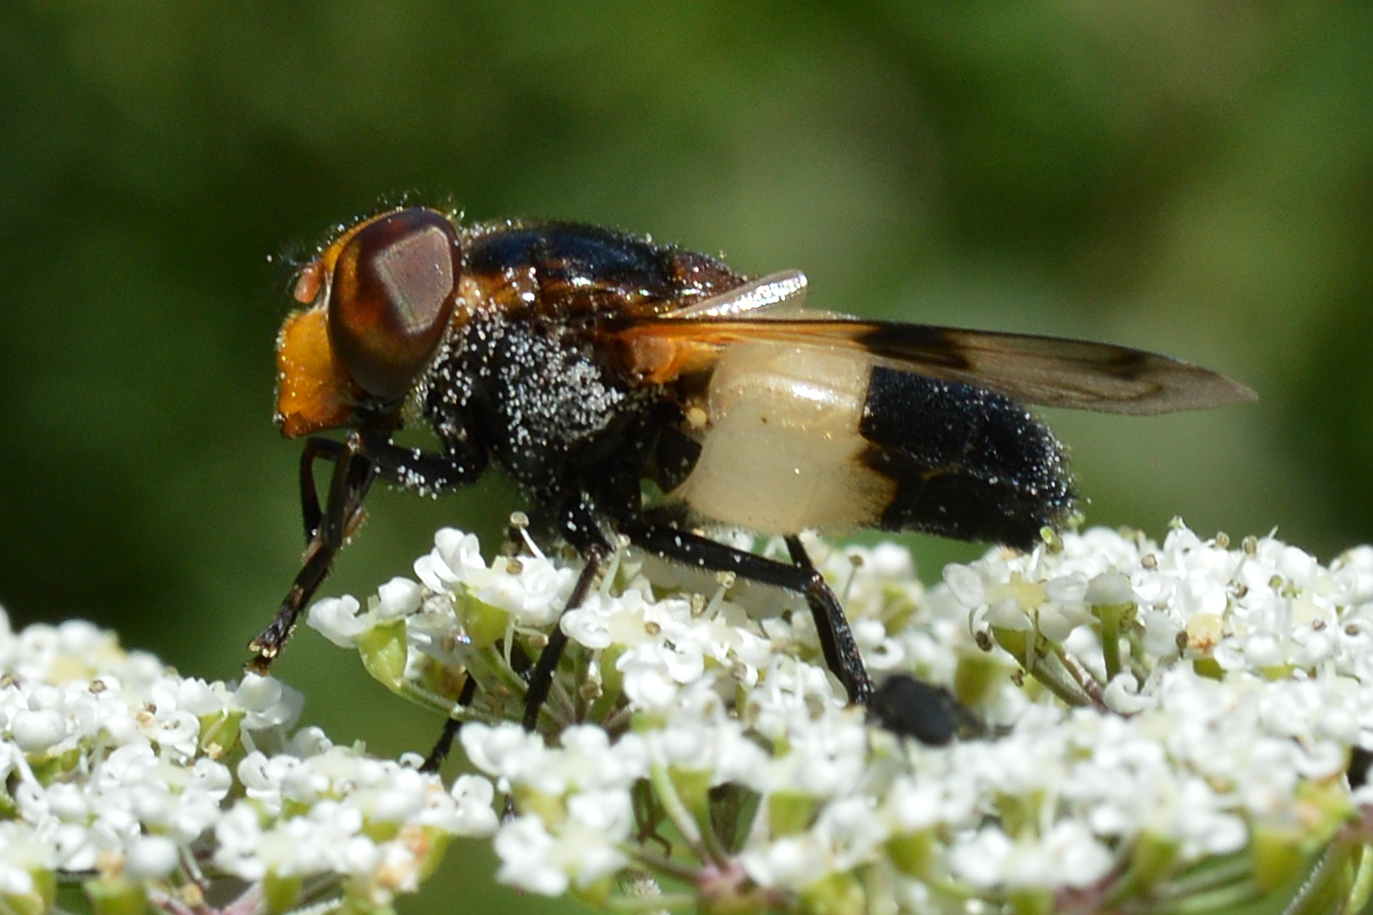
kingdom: Animalia
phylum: Arthropoda
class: Insecta
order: Diptera
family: Syrphidae
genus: Volucella
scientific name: Volucella pellucens
